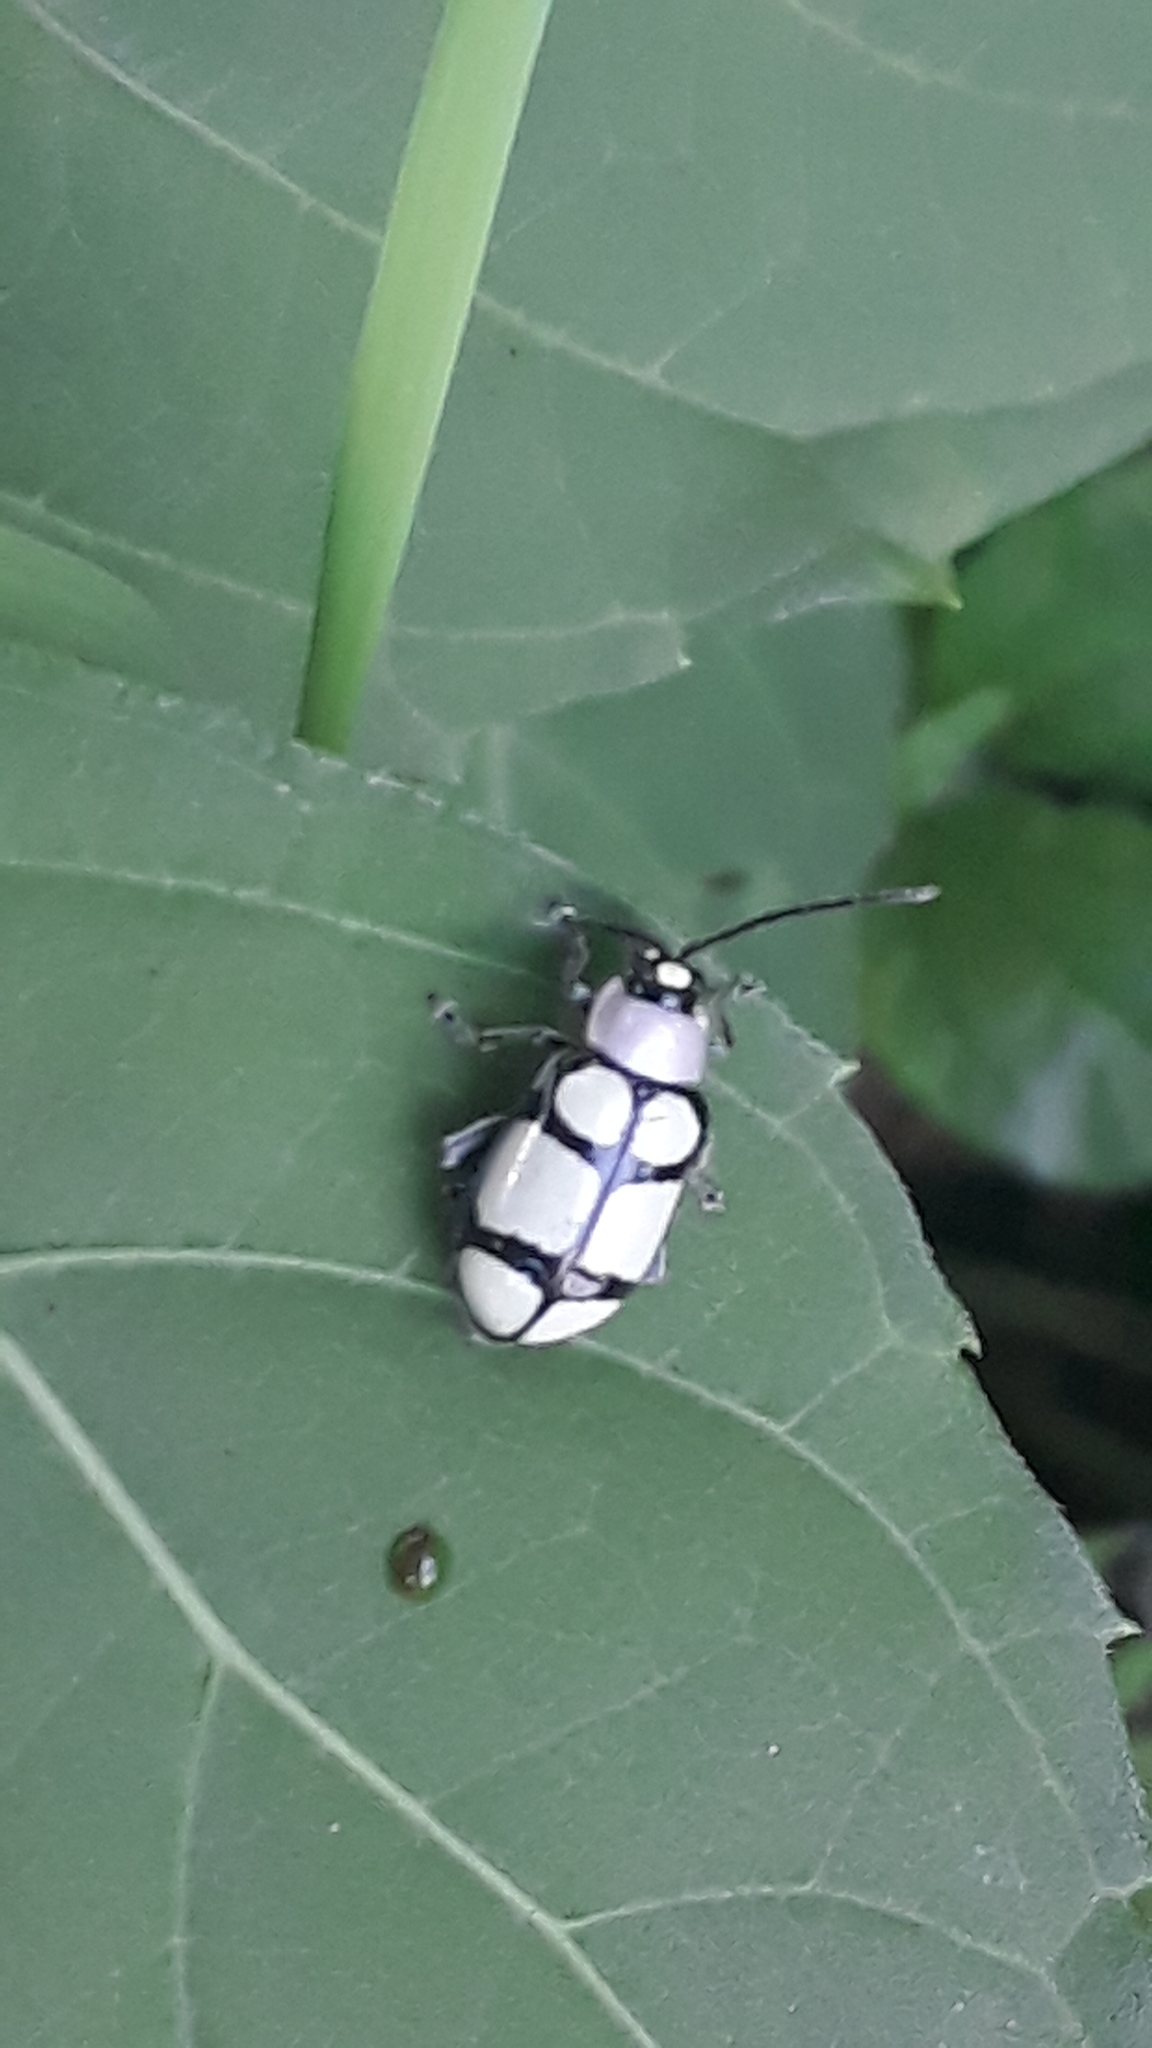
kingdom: Animalia
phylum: Arthropoda
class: Insecta
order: Coleoptera
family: Chrysomelidae
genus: Omophoita
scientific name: Omophoita
